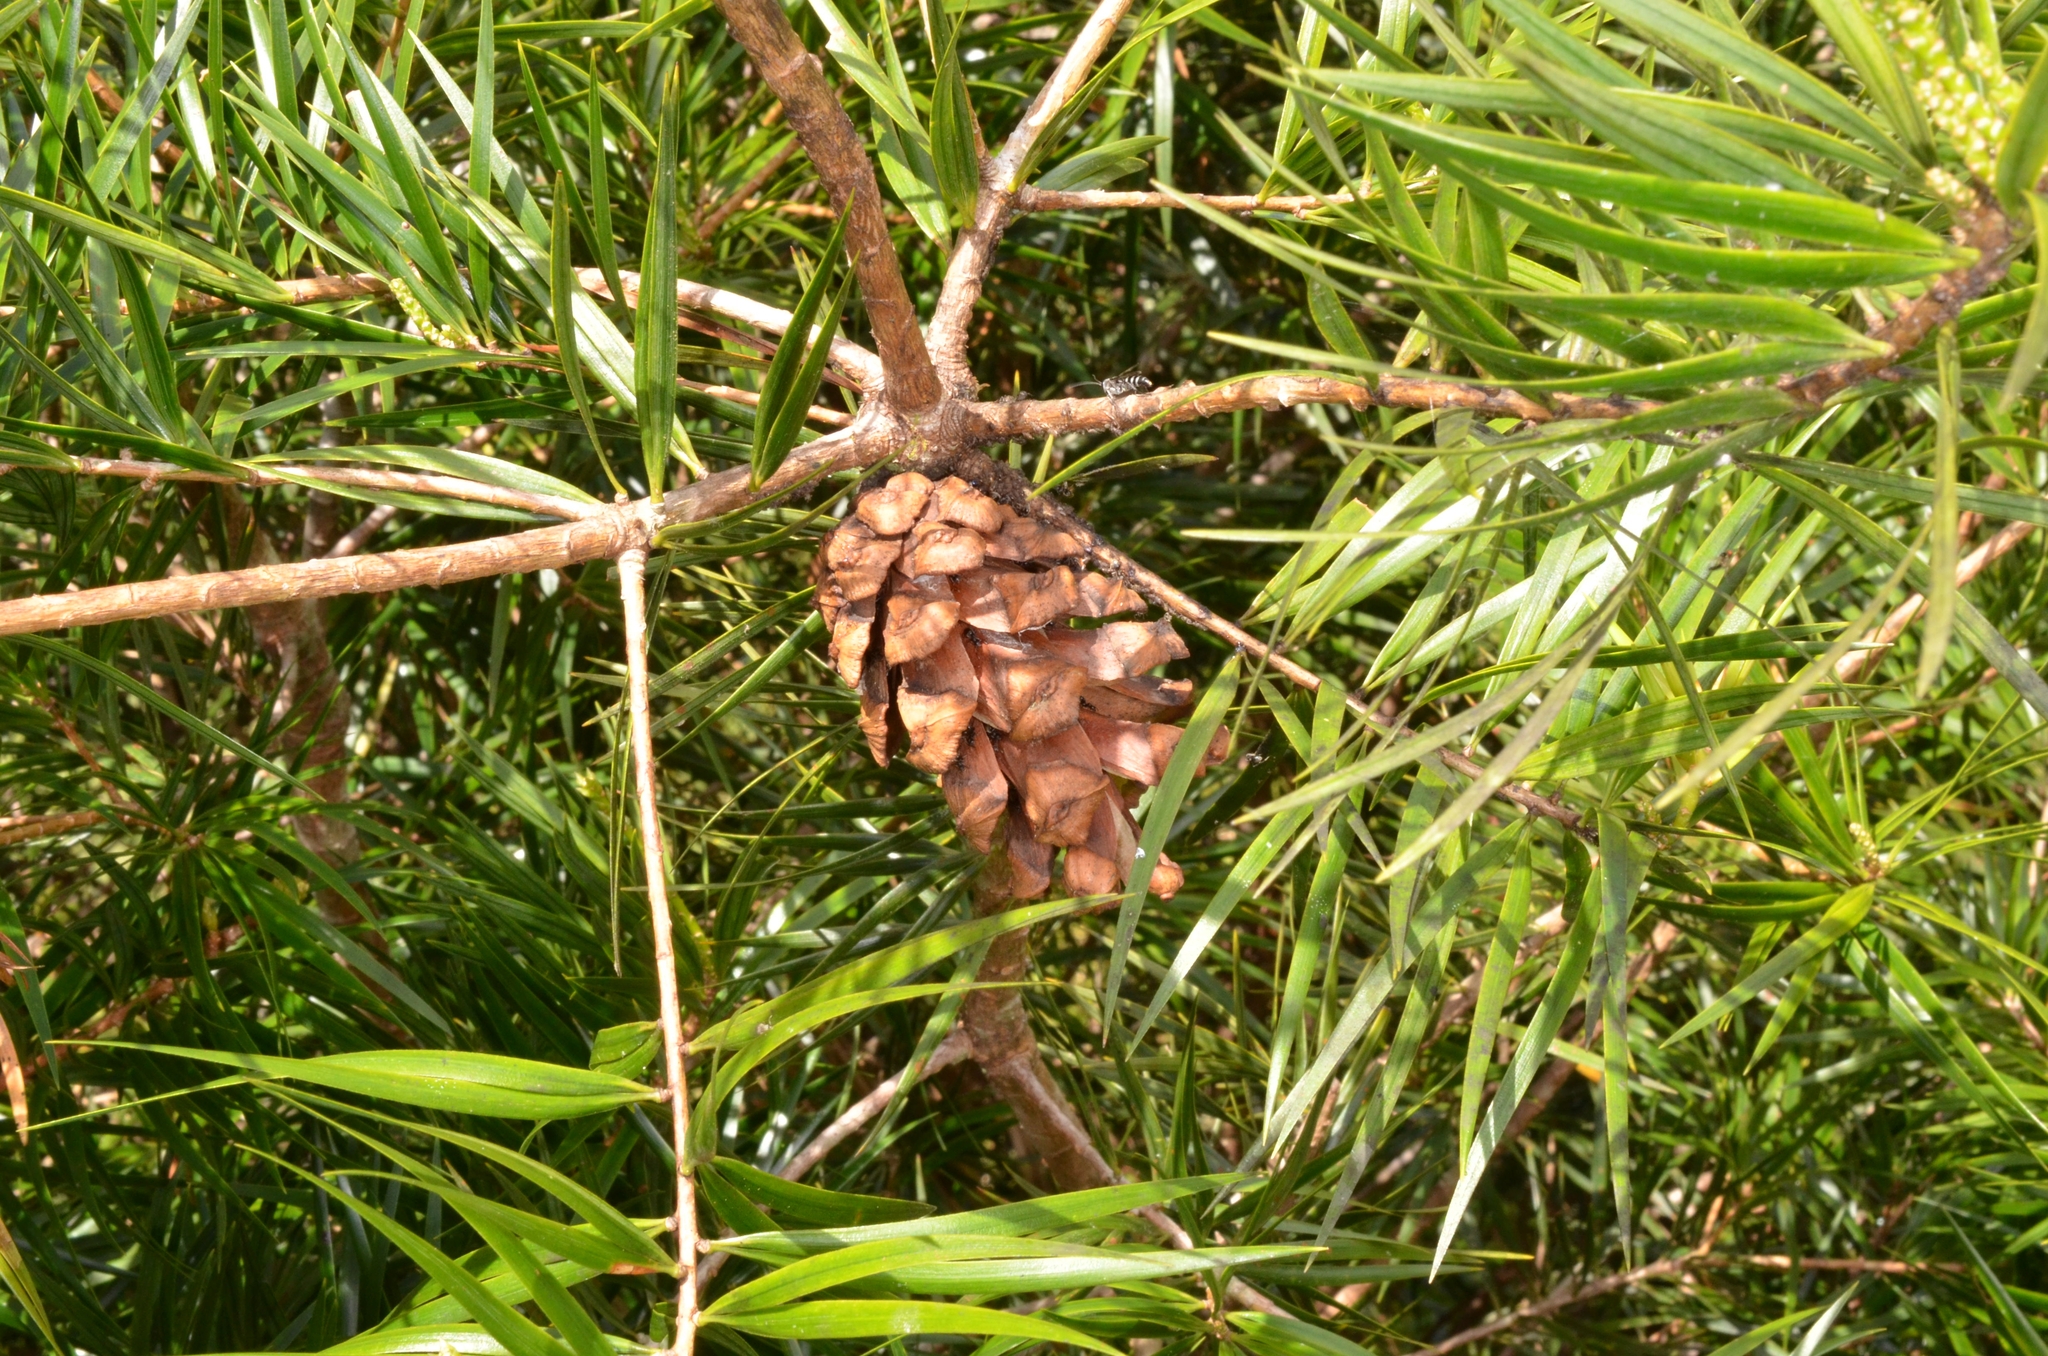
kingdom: Plantae
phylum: Tracheophyta
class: Pinopsida
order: Pinales
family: Pinaceae
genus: Pinus
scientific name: Pinus krempfii
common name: Krempf's pine
